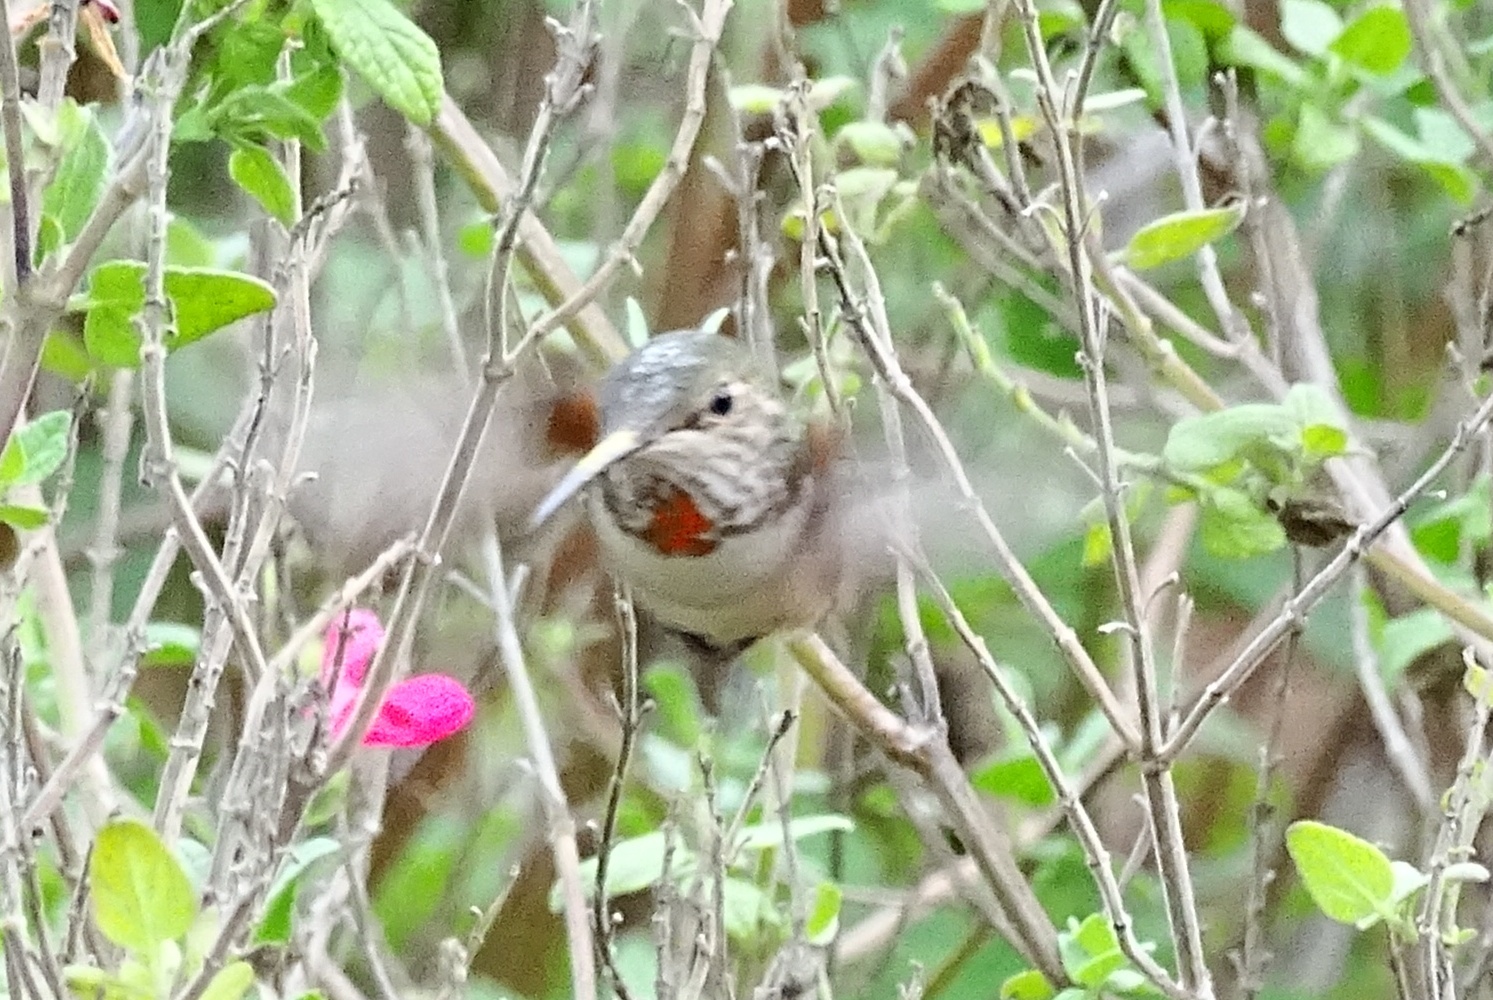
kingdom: Animalia
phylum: Chordata
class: Aves
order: Apodiformes
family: Trochilidae
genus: Selasphorus
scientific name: Selasphorus
